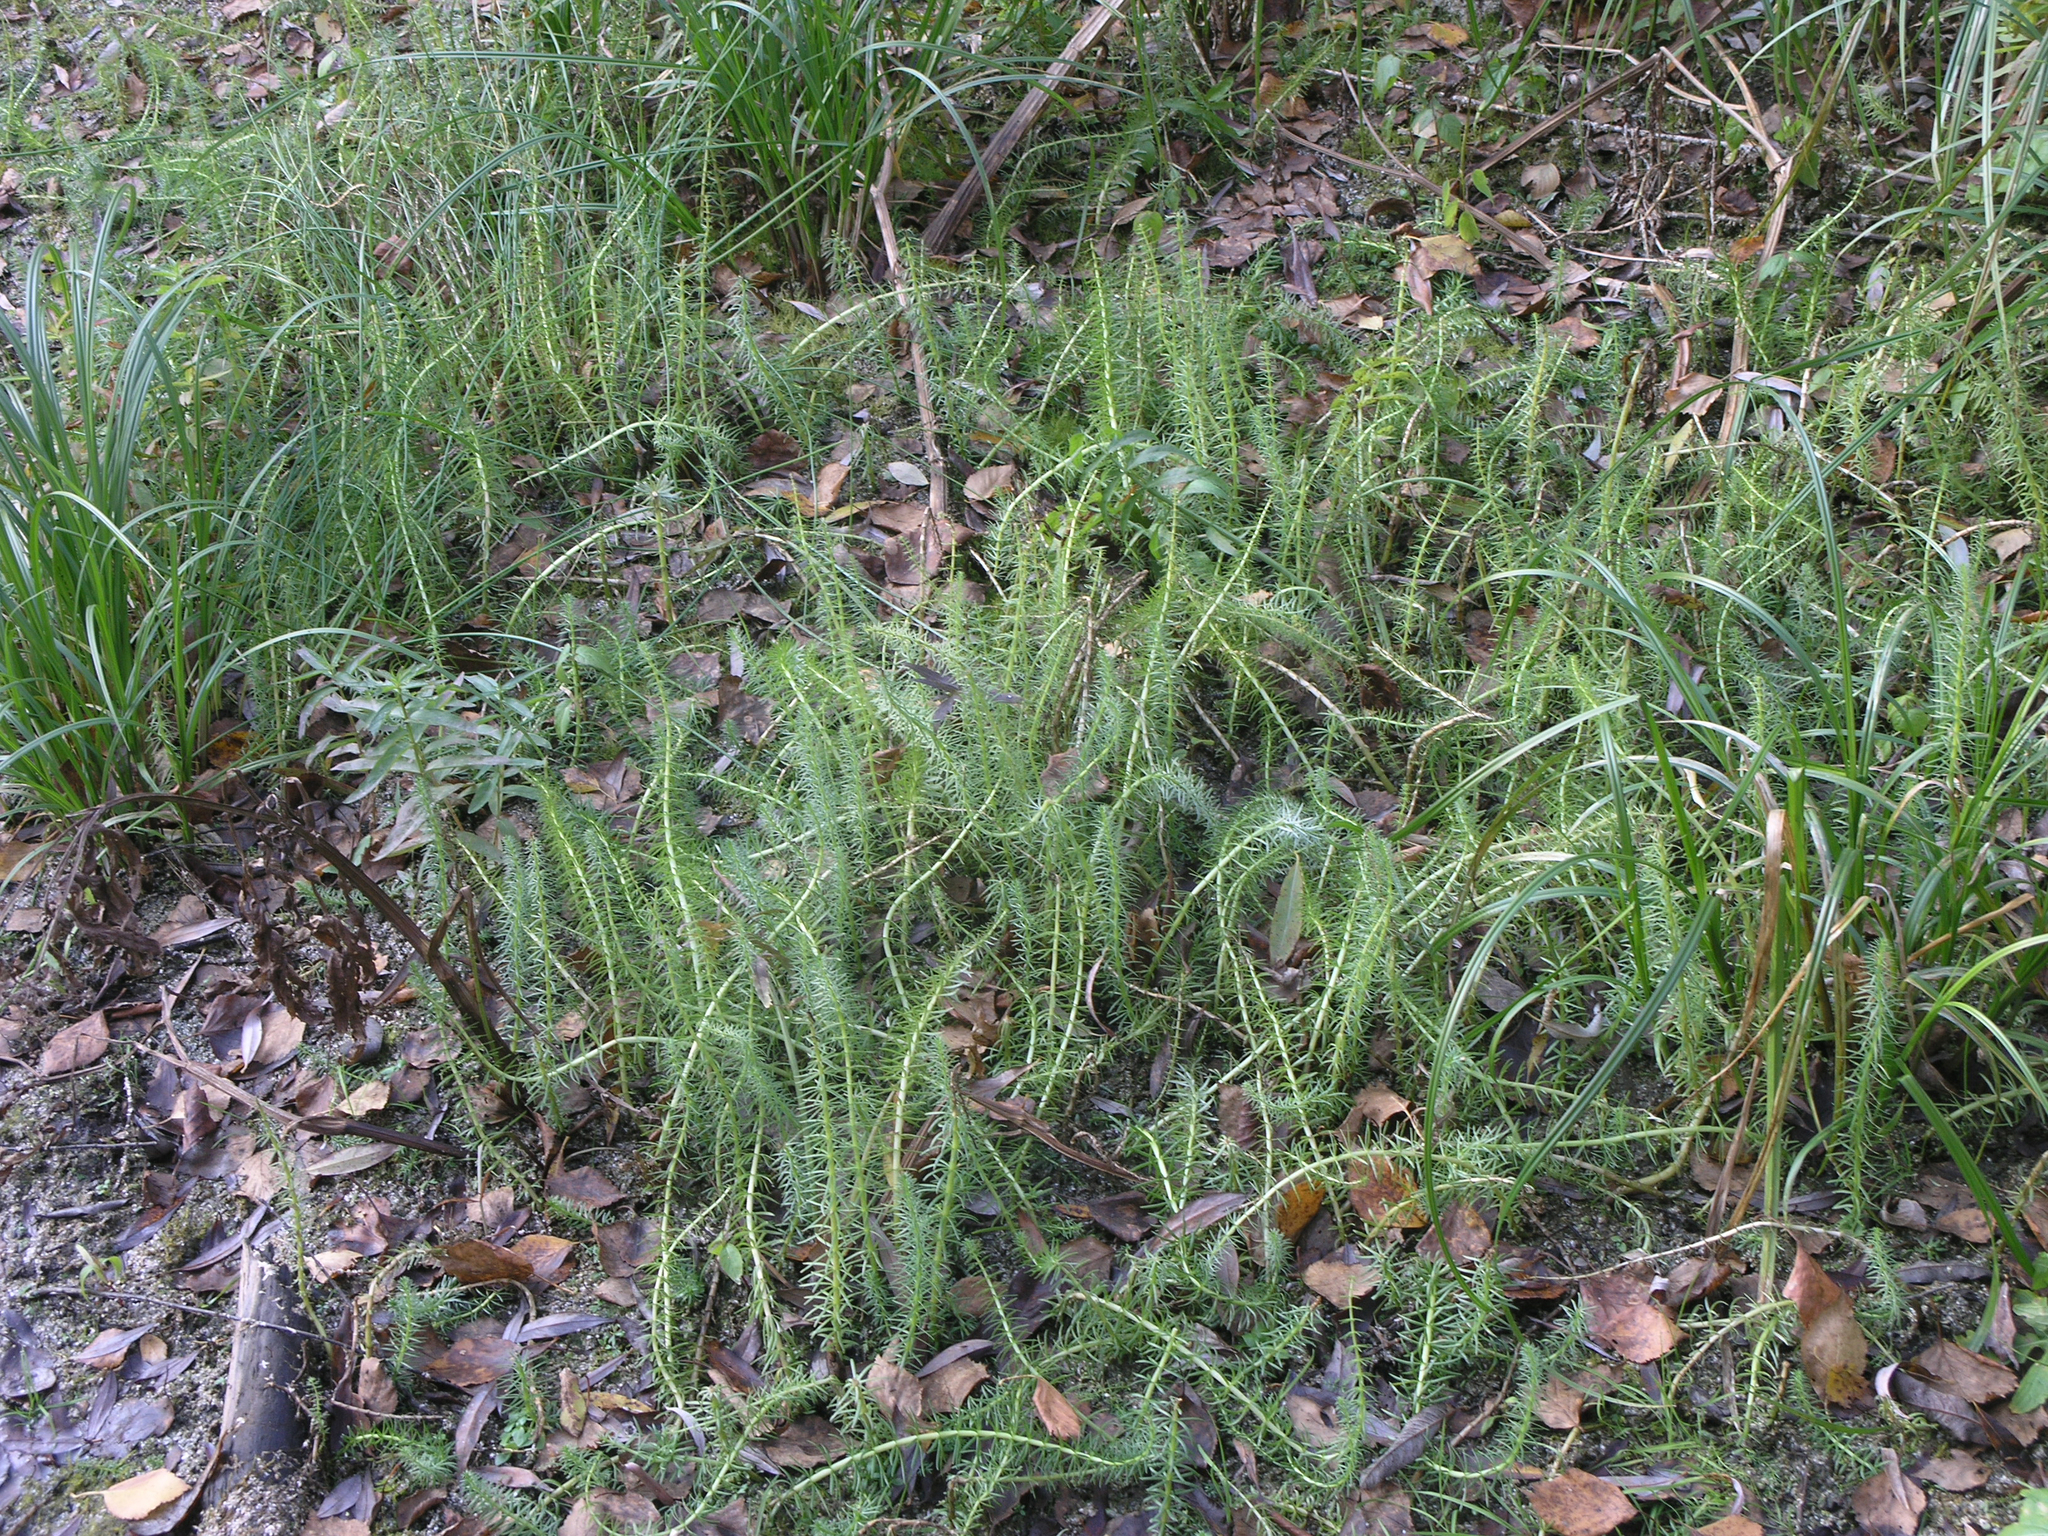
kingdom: Plantae
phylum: Tracheophyta
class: Magnoliopsida
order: Lamiales
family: Plantaginaceae
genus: Hippuris
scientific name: Hippuris vulgaris
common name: Mare's-tail
